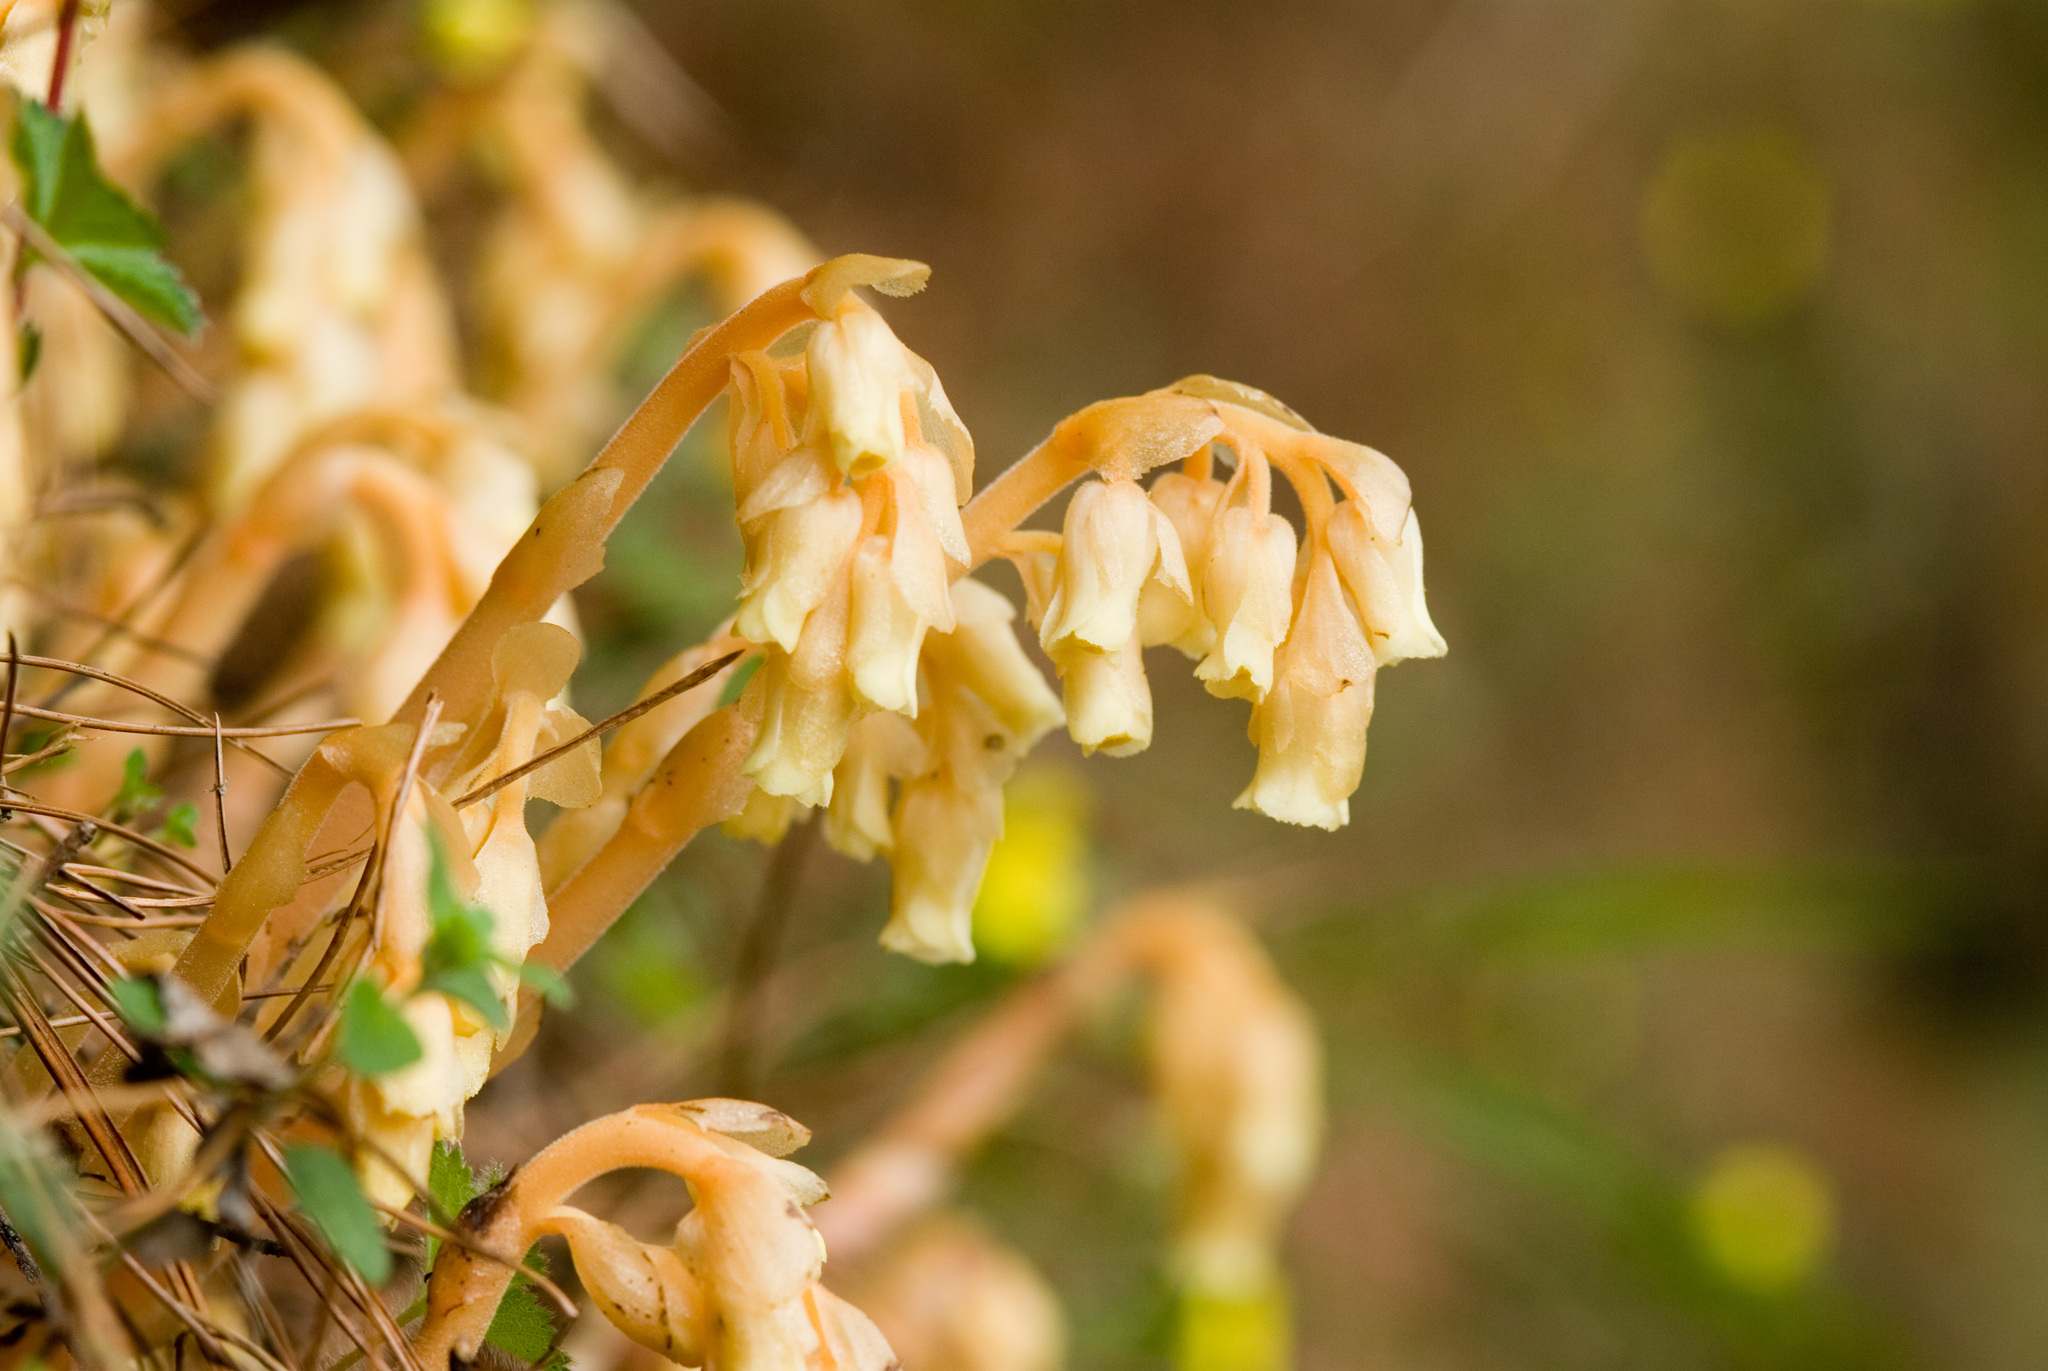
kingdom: Plantae
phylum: Tracheophyta
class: Magnoliopsida
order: Ericales
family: Ericaceae
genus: Hypopitys
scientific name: Hypopitys monotropa
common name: Yellow bird's-nest
